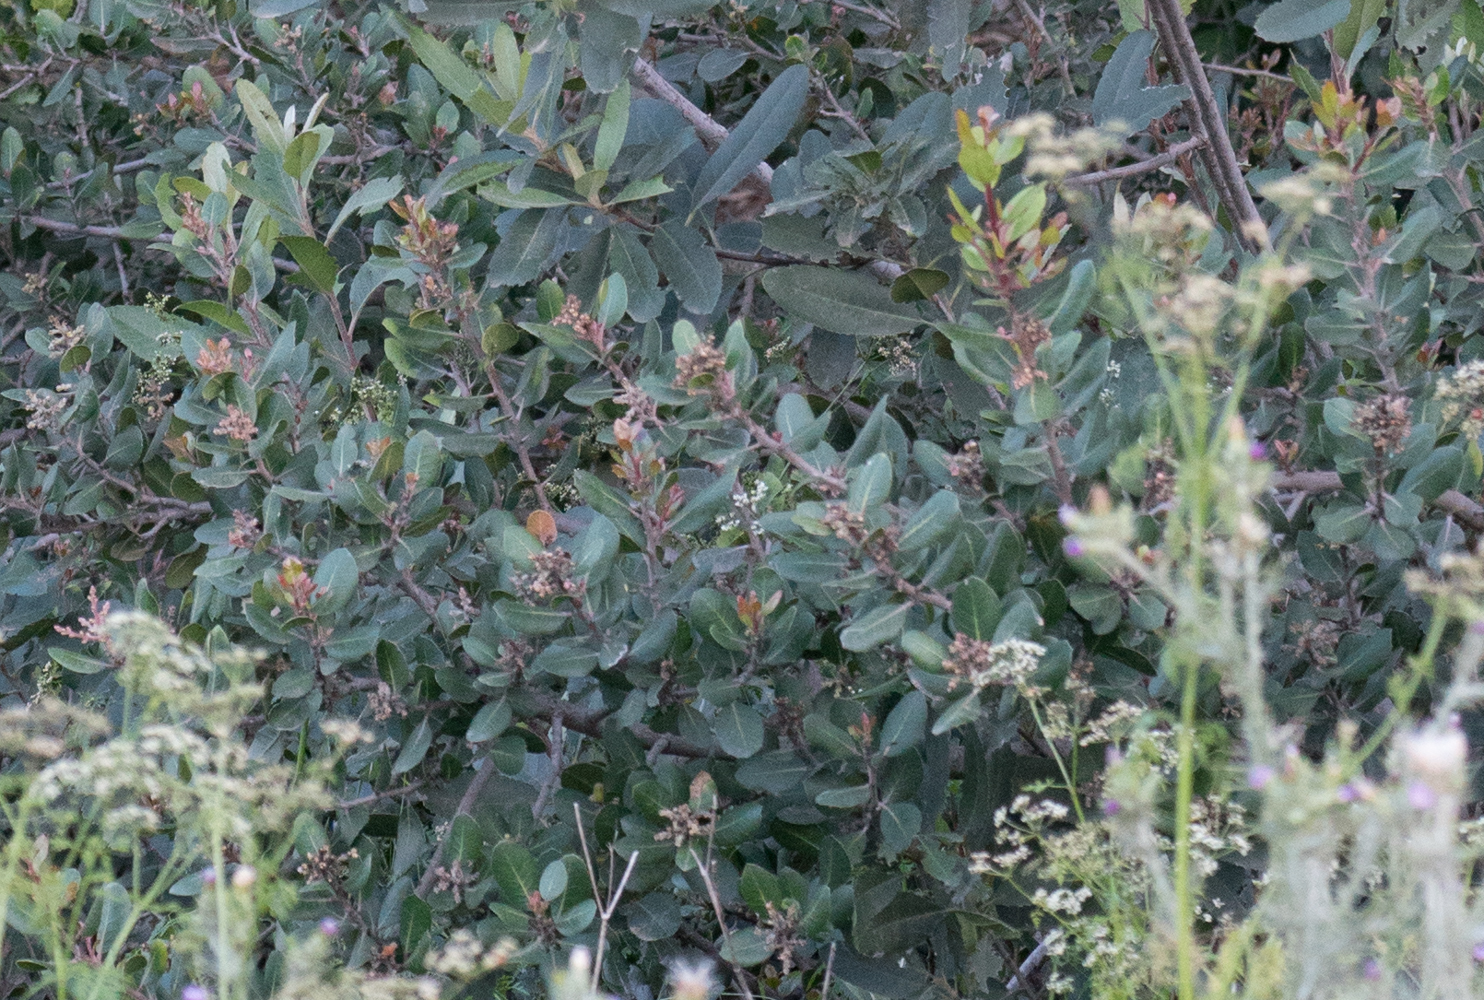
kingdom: Plantae
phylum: Tracheophyta
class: Magnoliopsida
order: Sapindales
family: Anacardiaceae
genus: Rhus
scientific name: Rhus integrifolia
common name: Lemonade sumac
